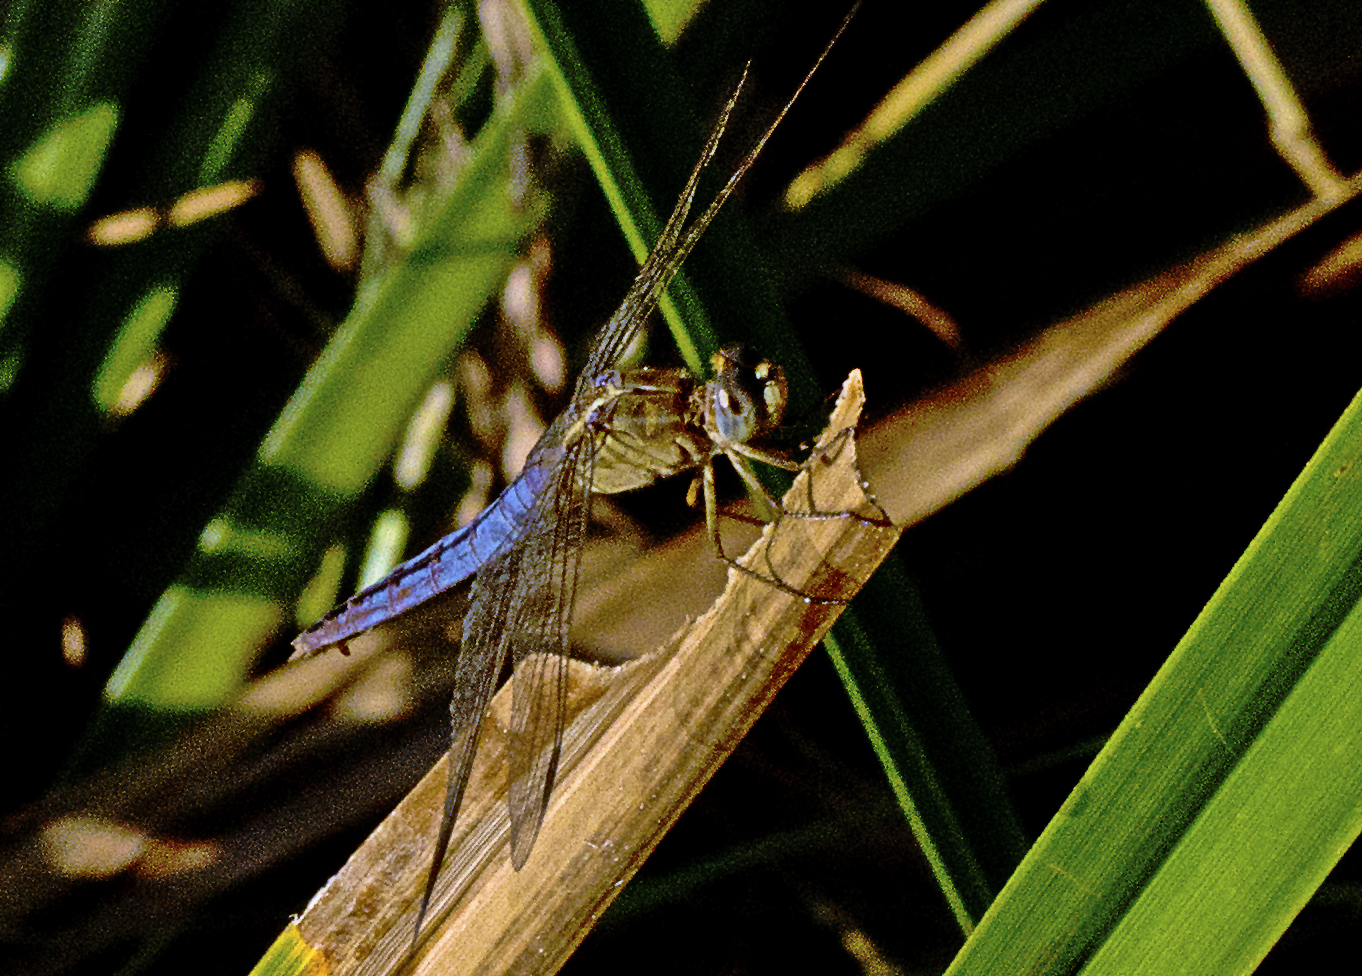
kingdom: Animalia
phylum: Arthropoda
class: Insecta
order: Odonata
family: Libellulidae
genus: Crocothemis
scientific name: Crocothemis nigrifrons
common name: Black-headed skimmer
